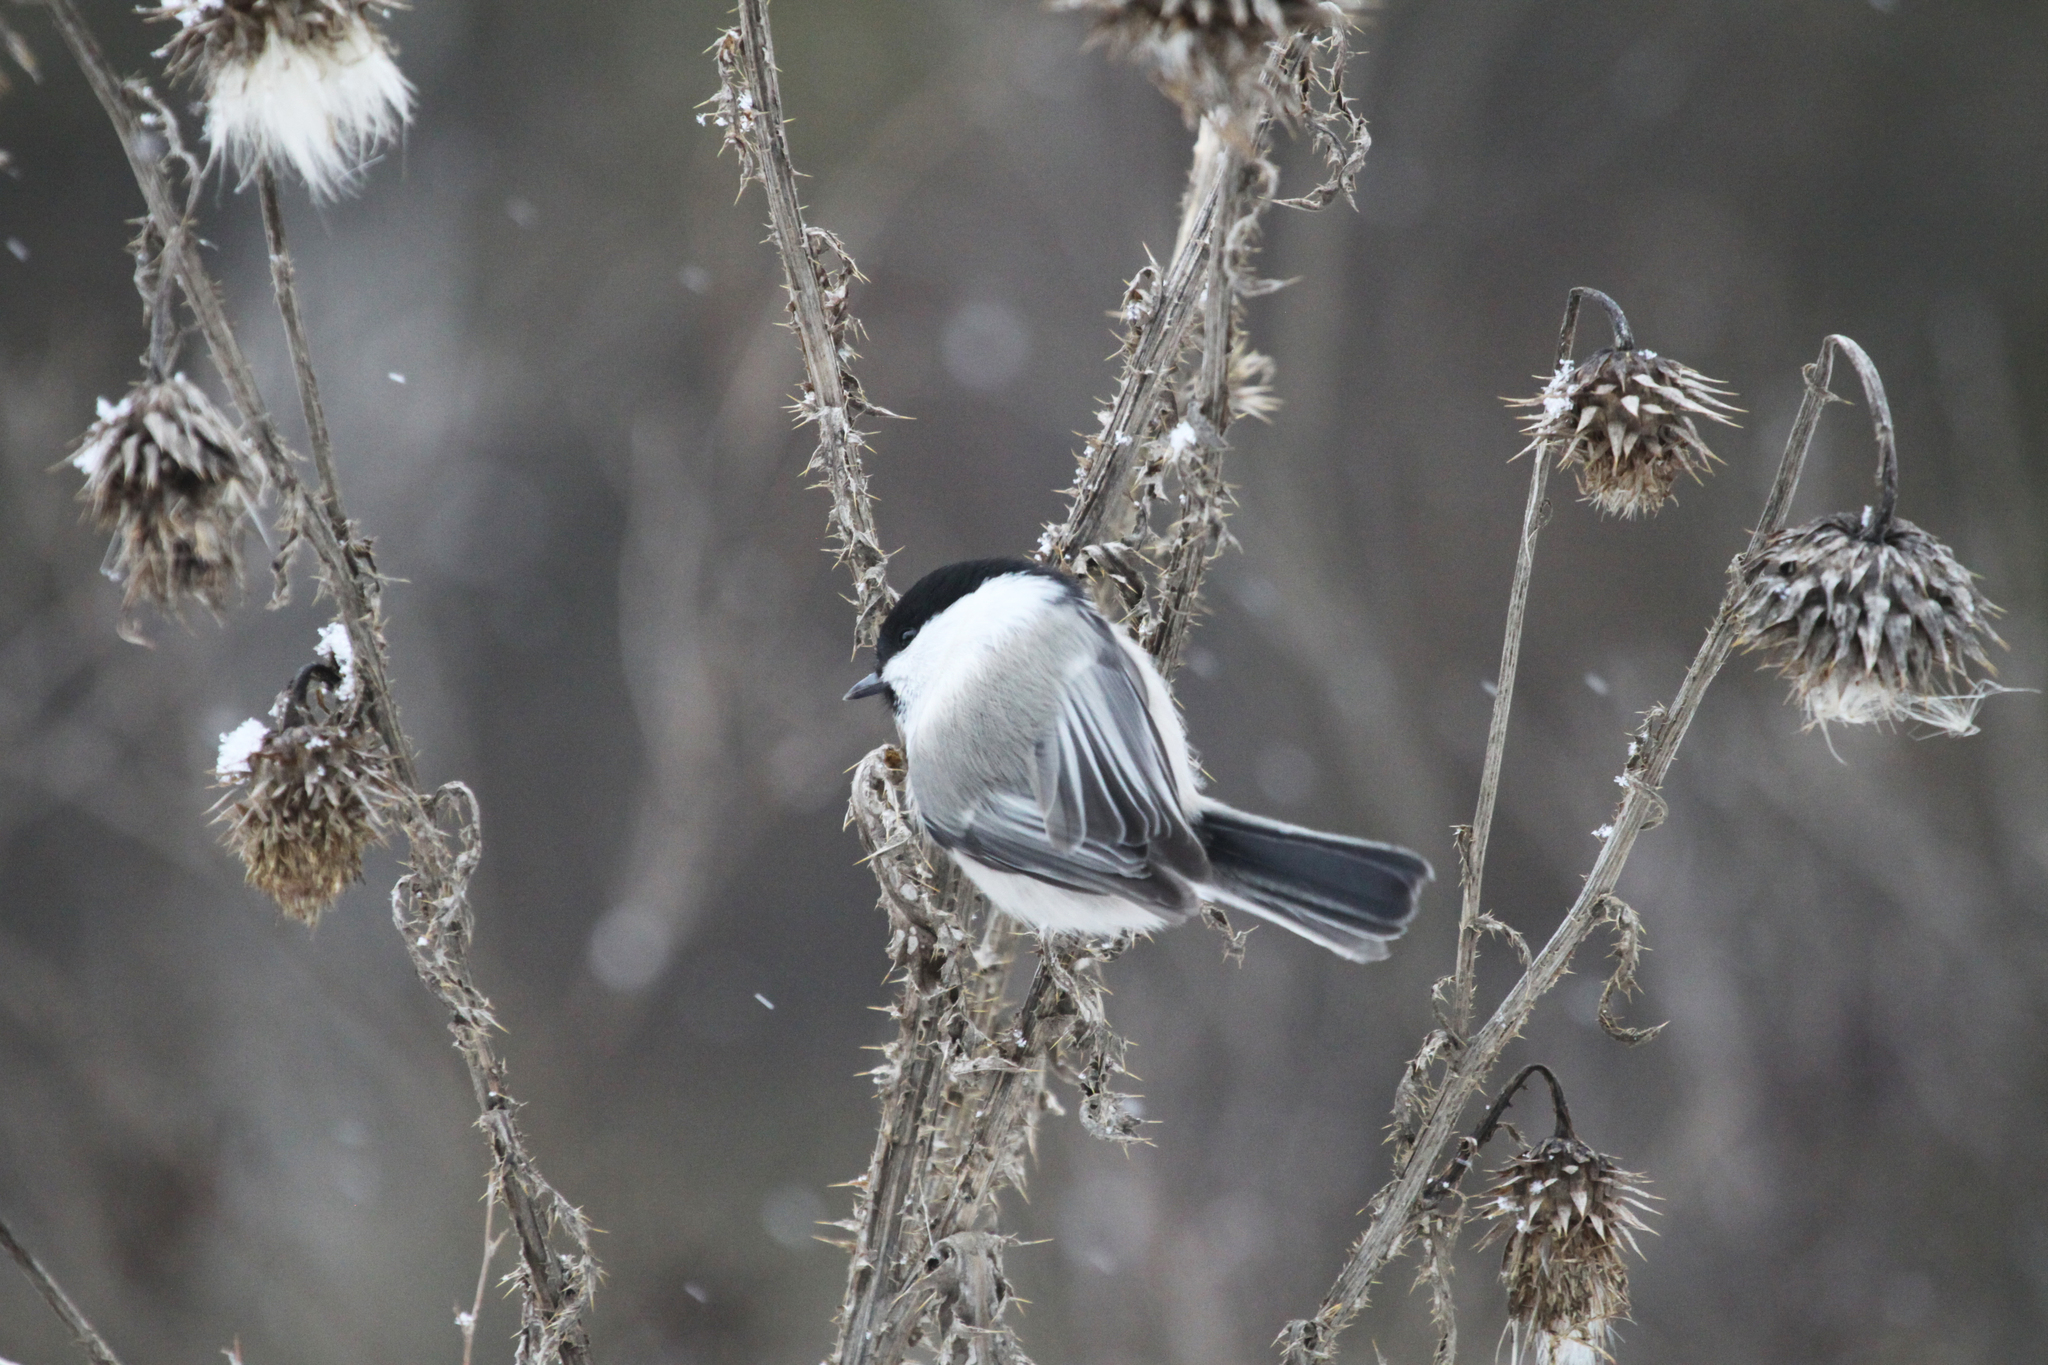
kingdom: Animalia
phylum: Chordata
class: Aves
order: Passeriformes
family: Paridae
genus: Poecile
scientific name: Poecile montanus
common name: Willow tit
